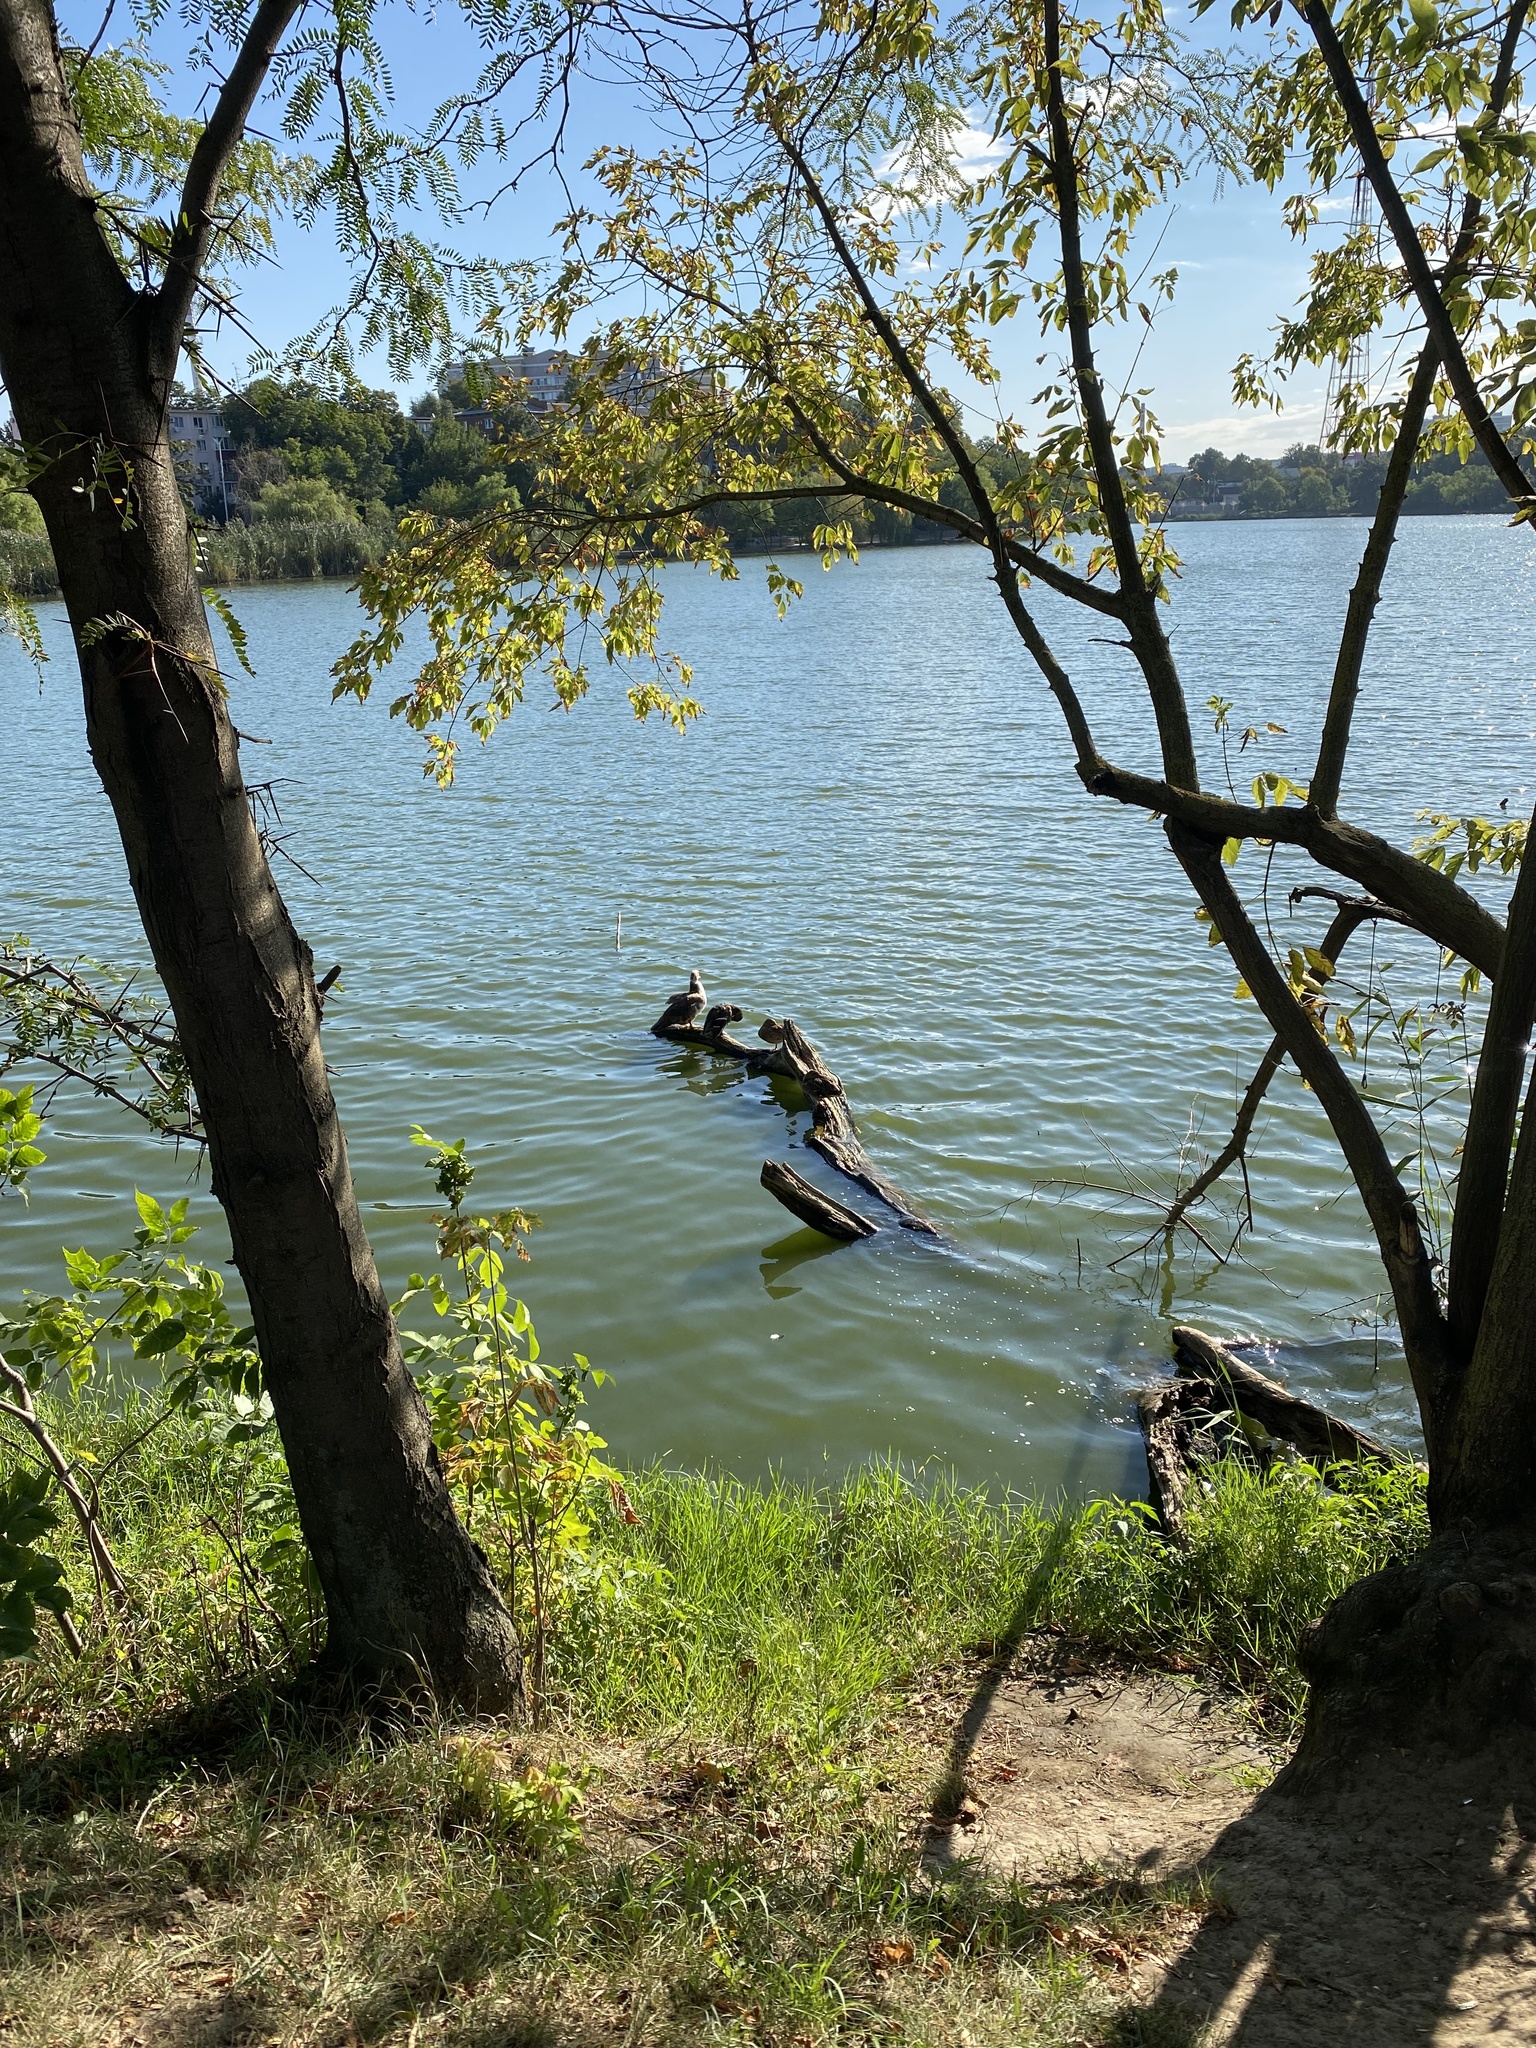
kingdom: Animalia
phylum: Chordata
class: Aves
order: Anseriformes
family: Anatidae
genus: Cairina
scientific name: Cairina moschata
